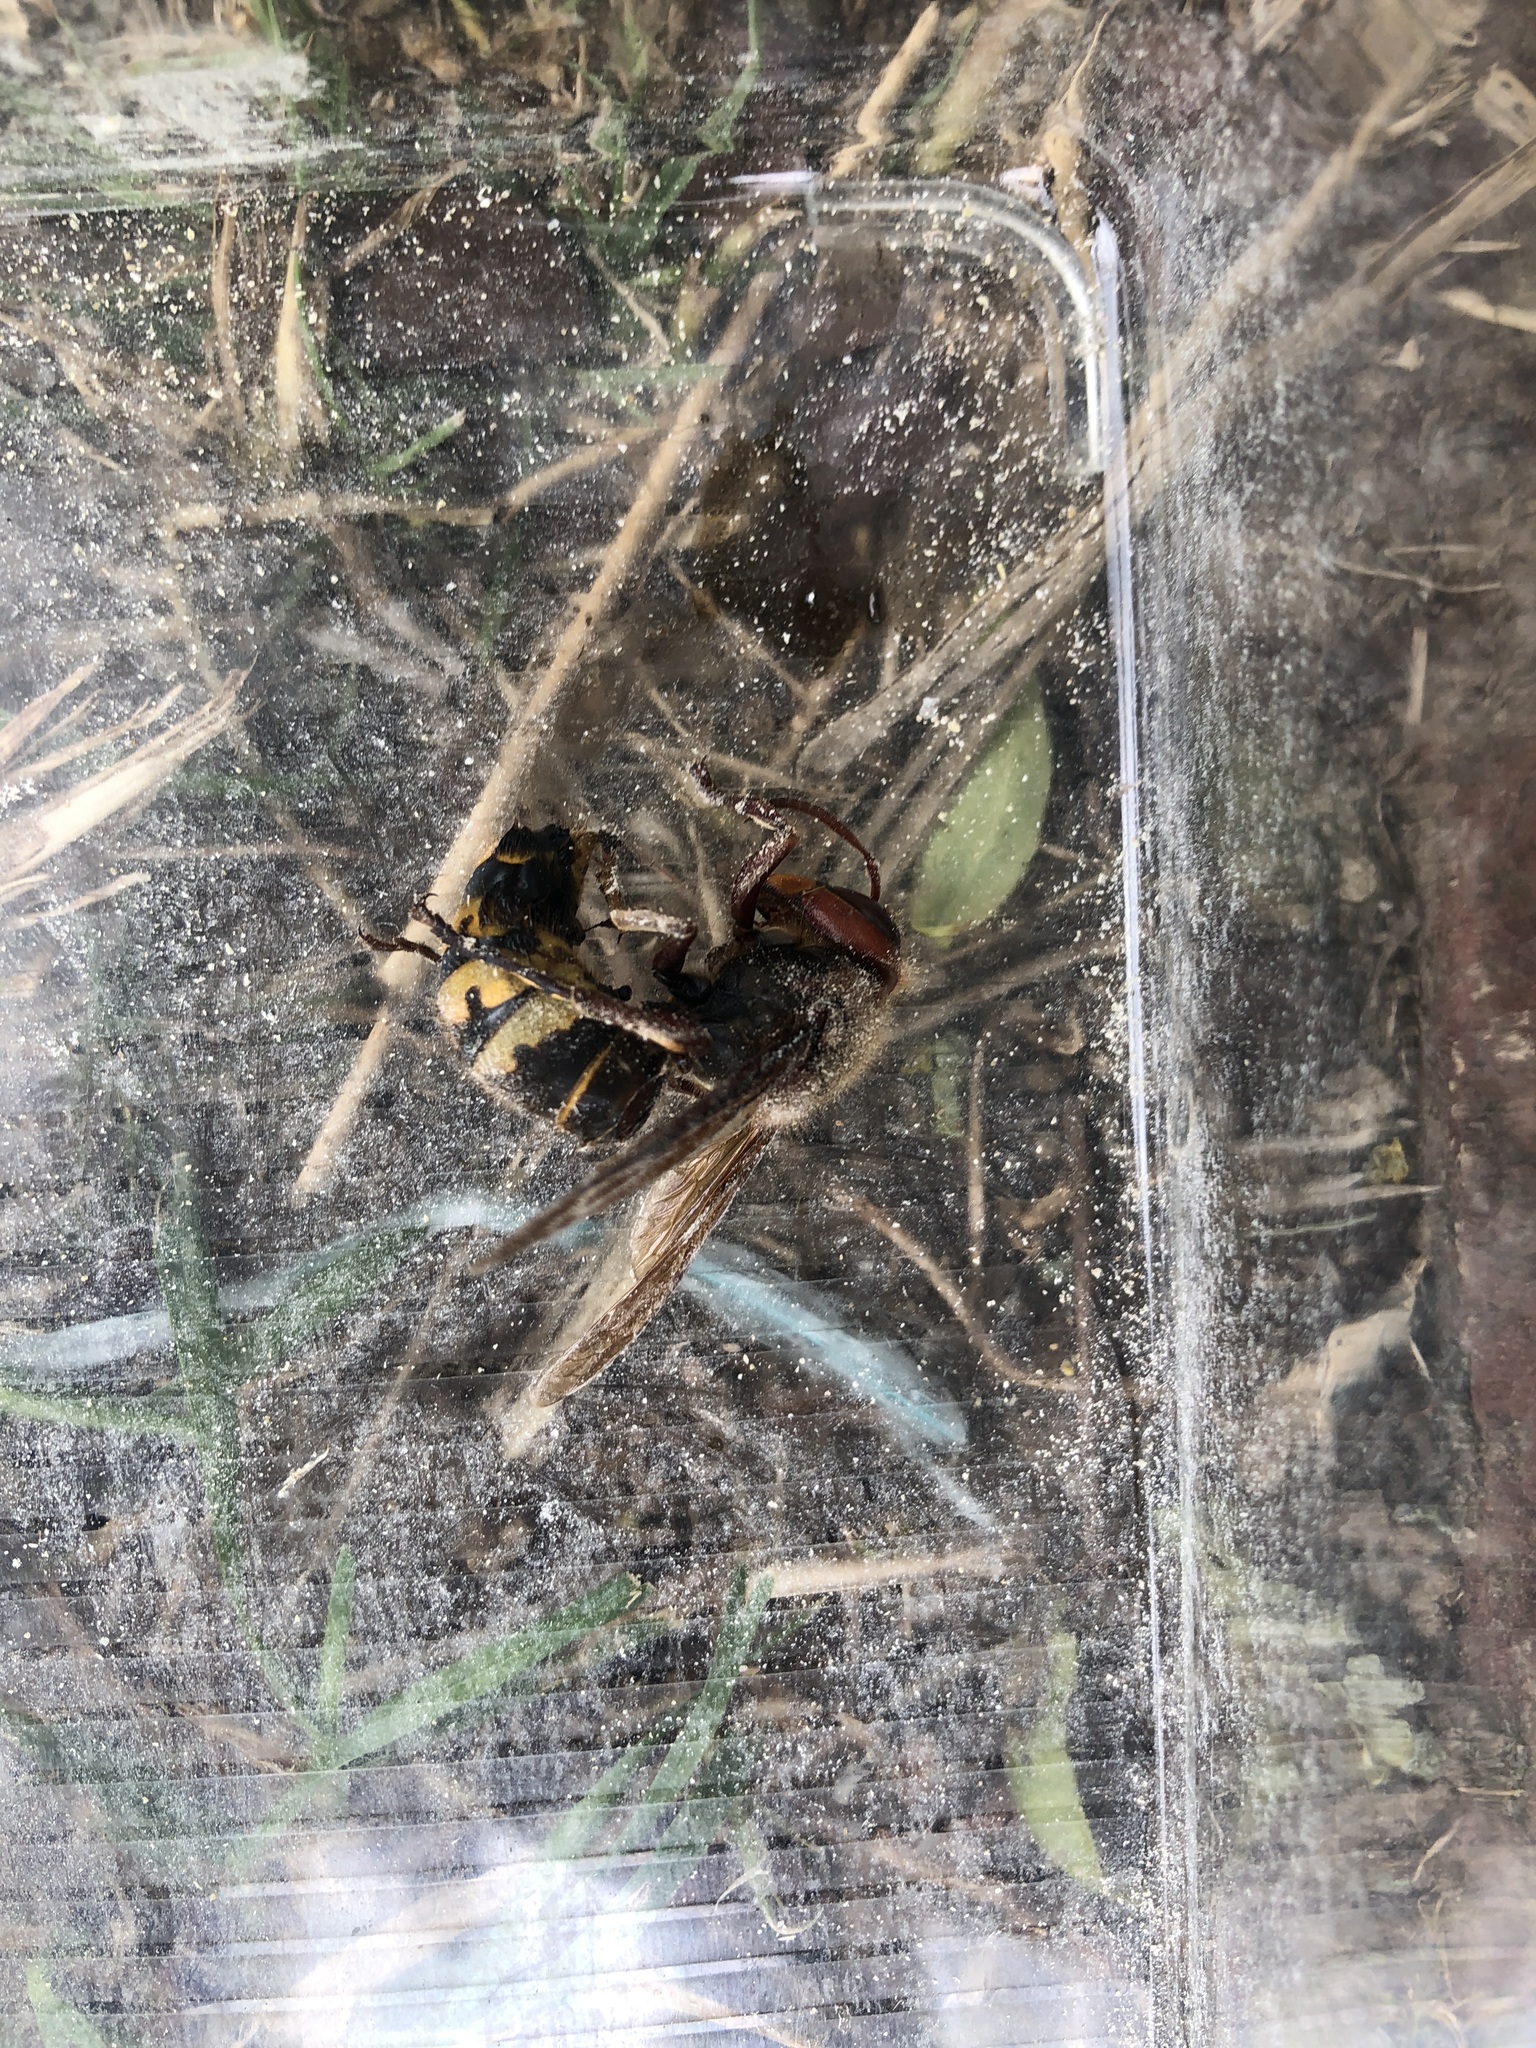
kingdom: Animalia
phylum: Arthropoda
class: Insecta
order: Hymenoptera
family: Vespidae
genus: Vespa
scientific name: Vespa crabro
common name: Hornet
